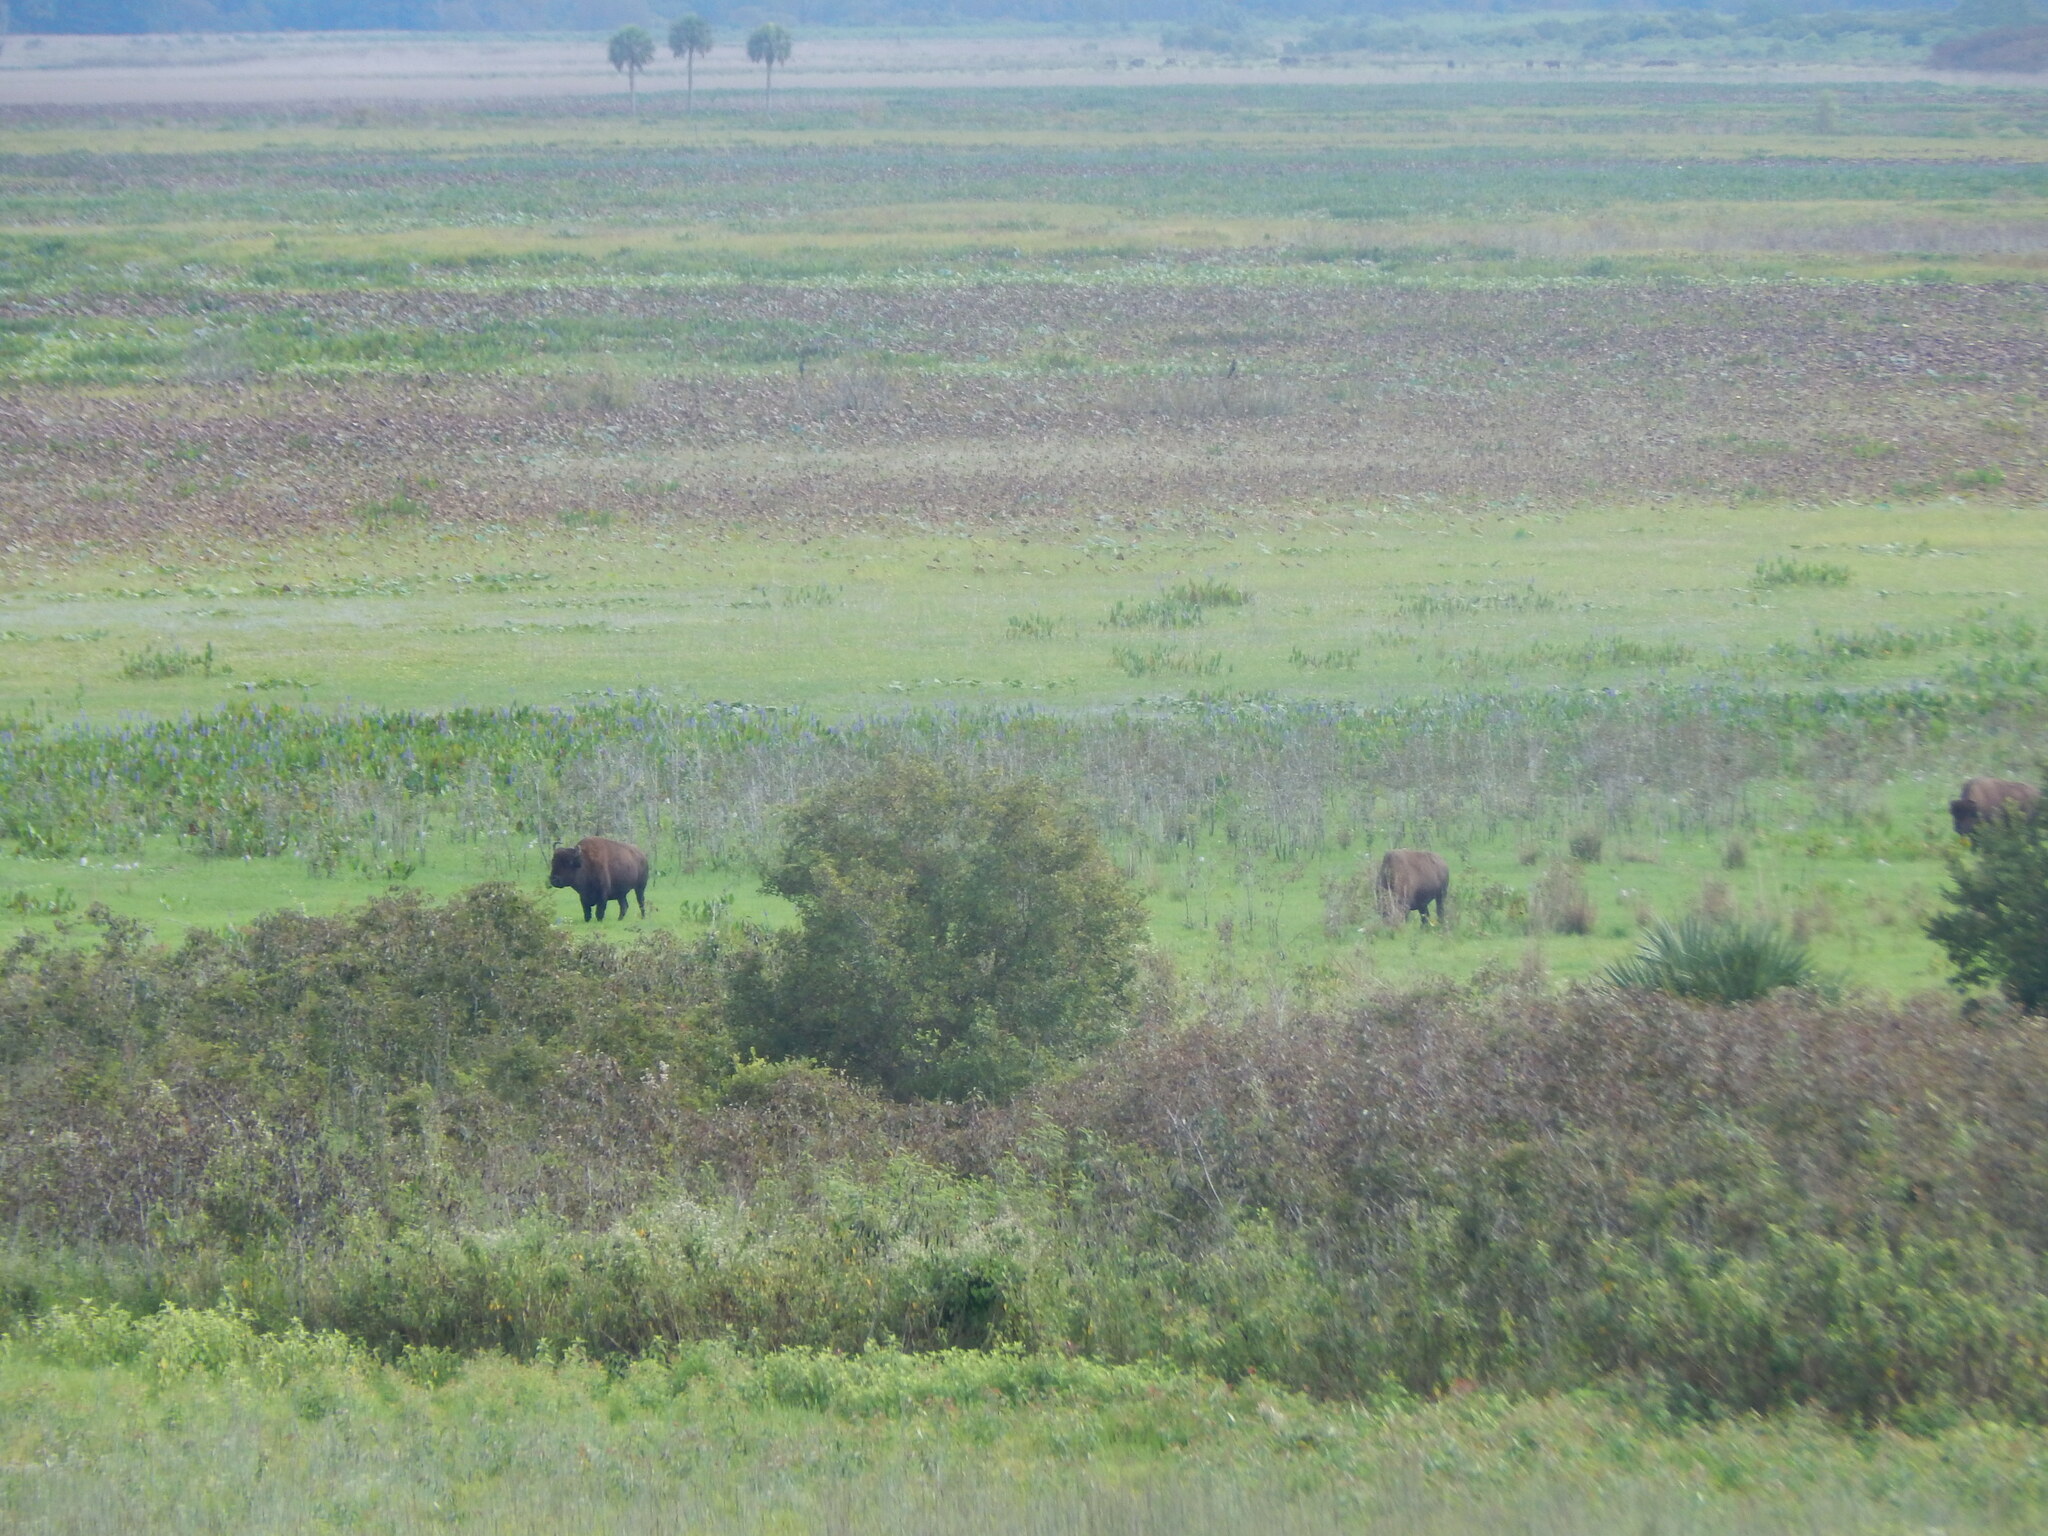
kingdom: Animalia
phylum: Chordata
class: Mammalia
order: Artiodactyla
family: Bovidae
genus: Bison
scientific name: Bison bison
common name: American bison
